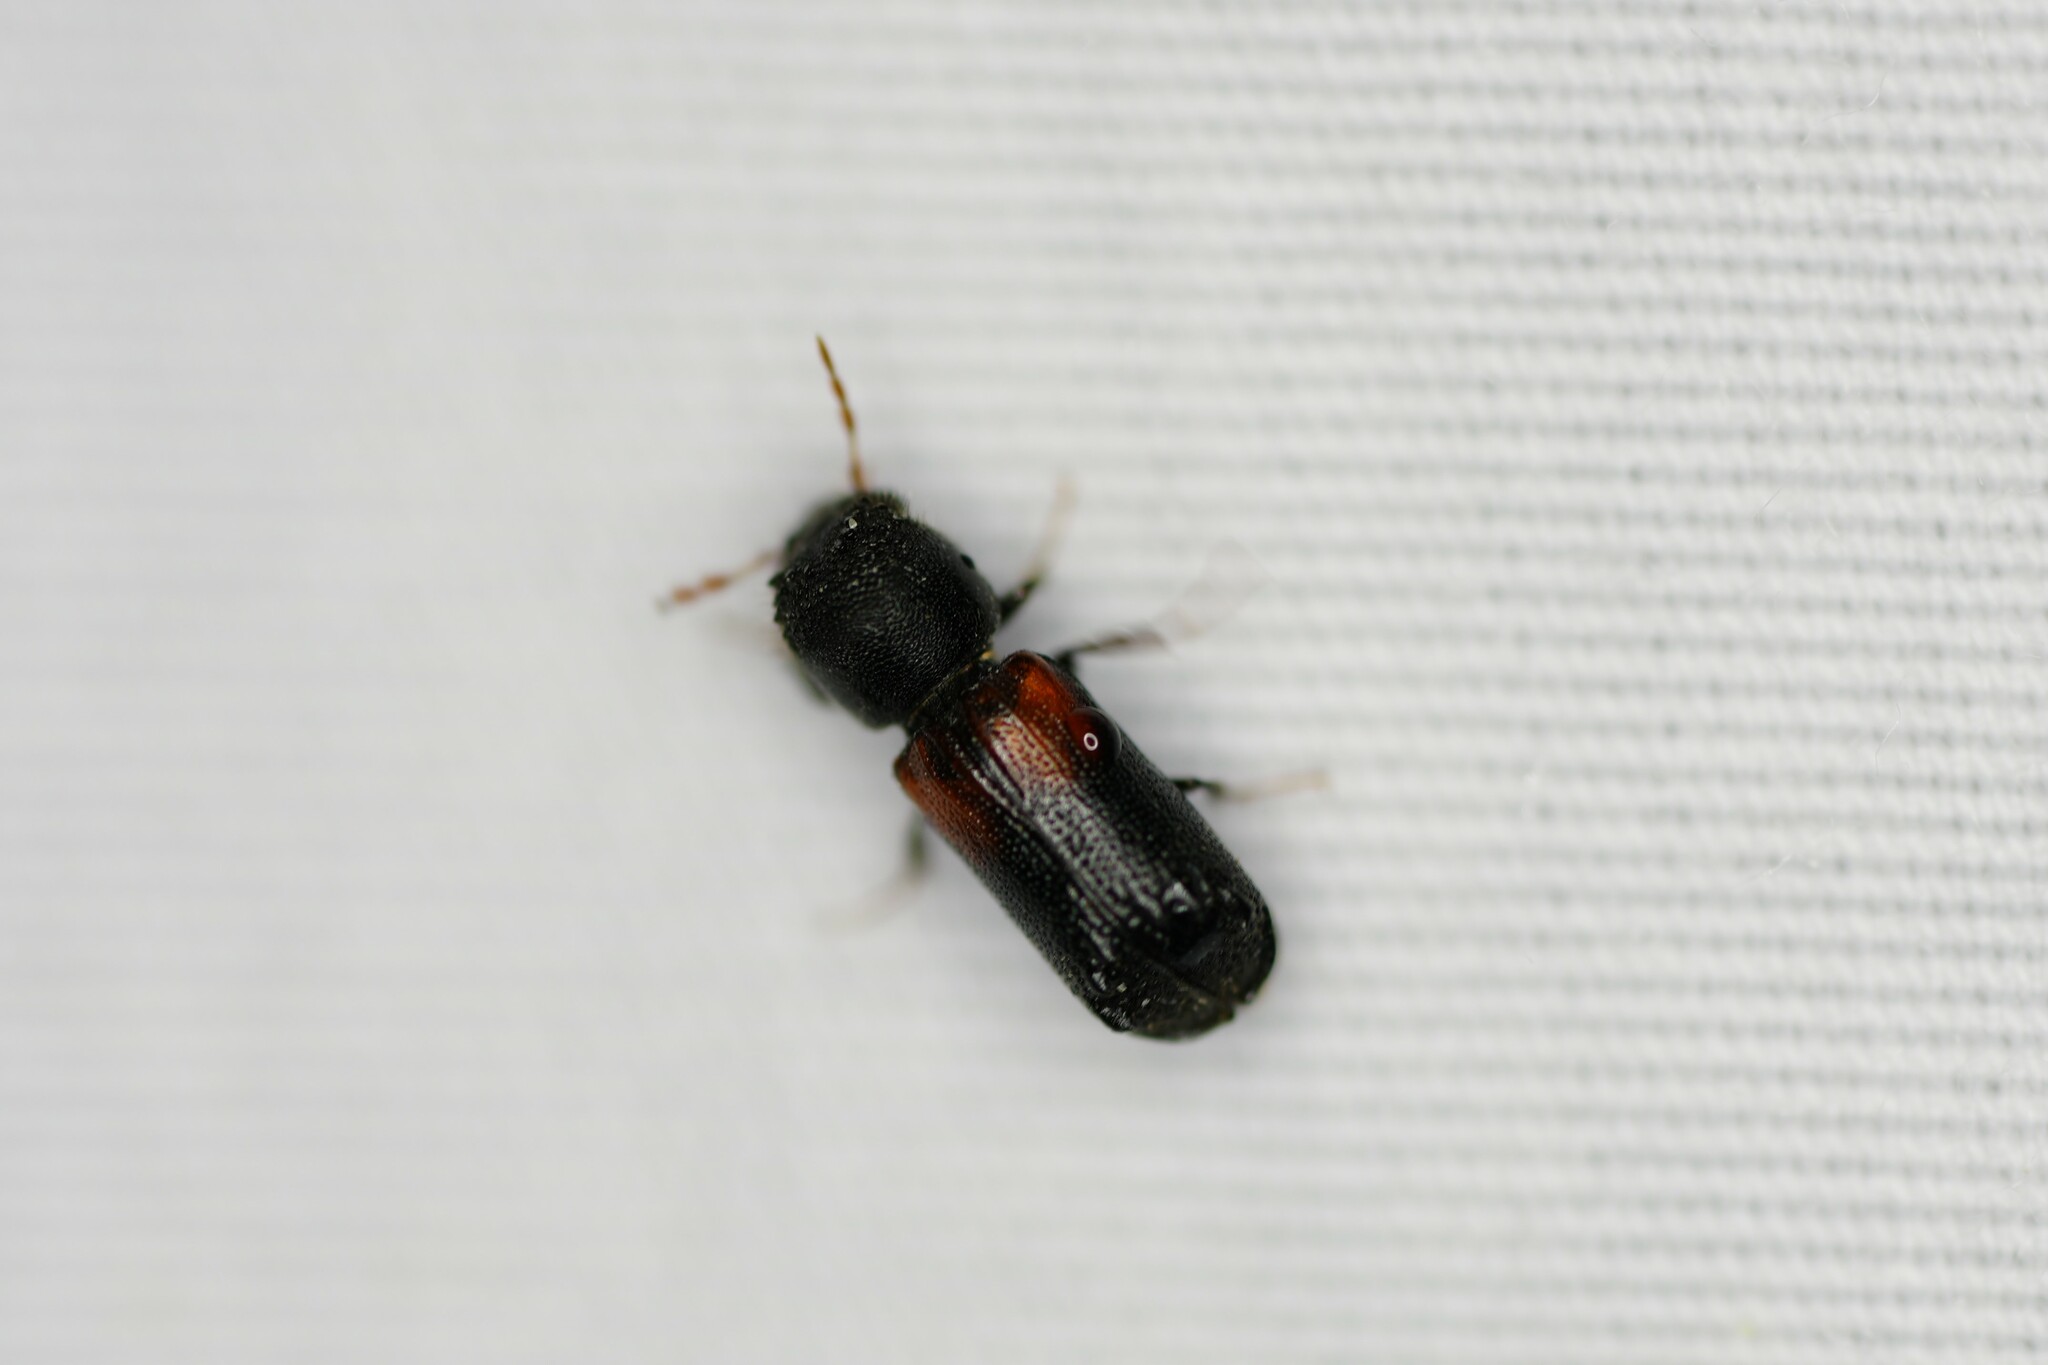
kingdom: Animalia
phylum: Arthropoda
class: Insecta
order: Coleoptera
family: Bostrichidae
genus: Xylobiops
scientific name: Xylobiops basilaris
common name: Red-shouldered bostrichid
